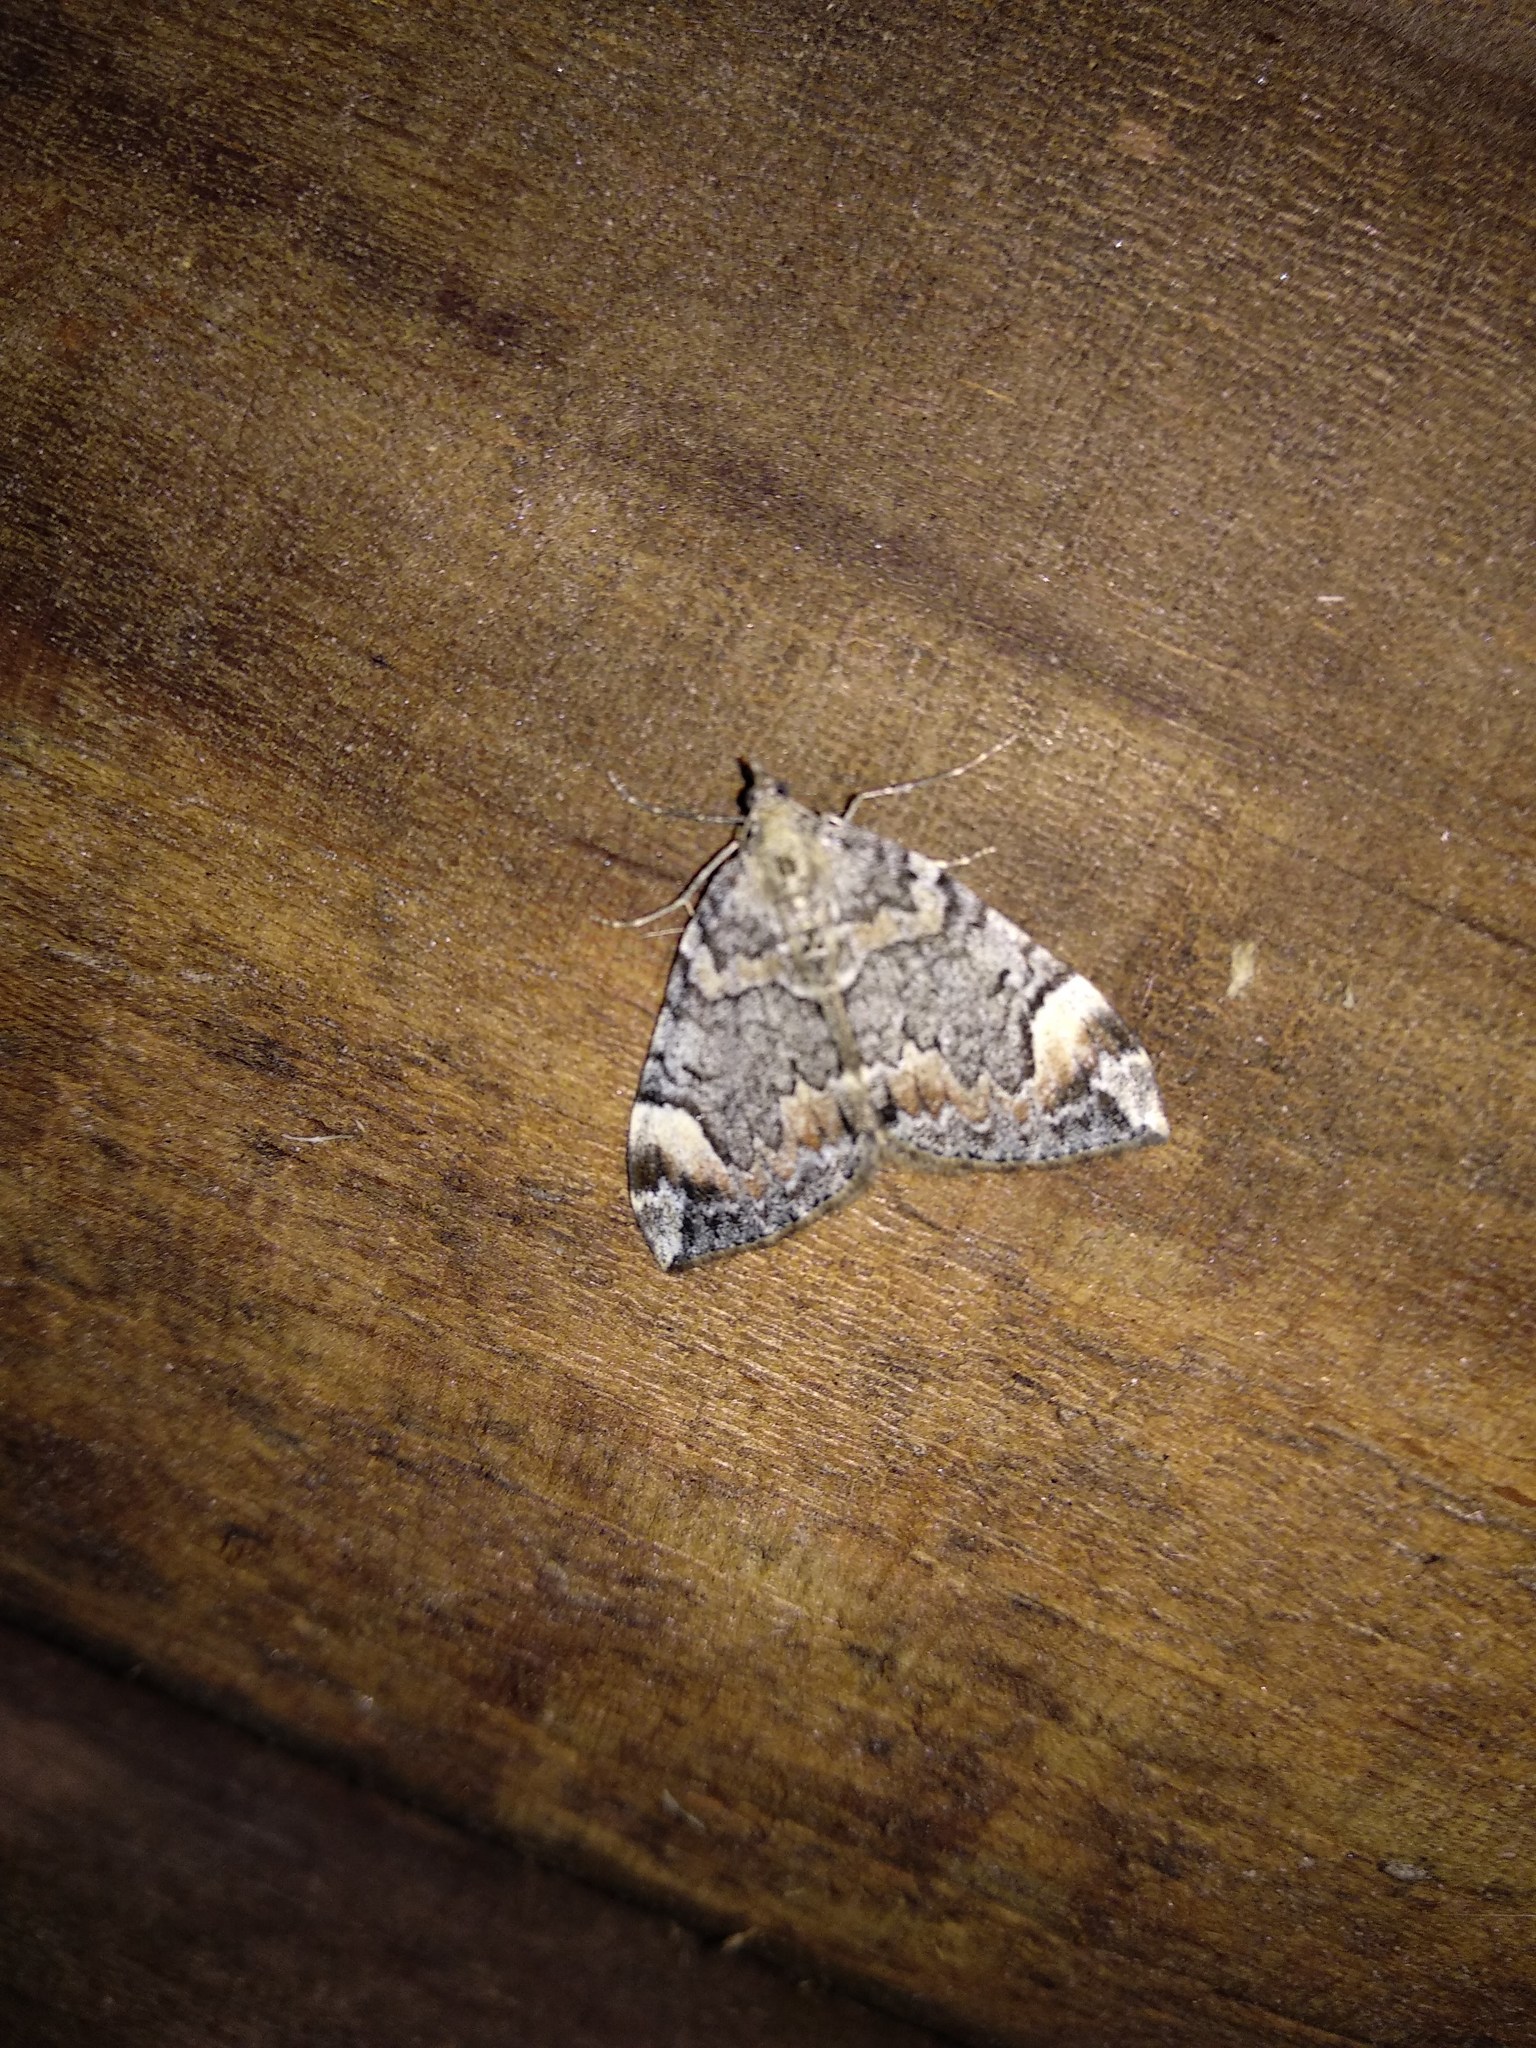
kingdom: Animalia
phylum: Arthropoda
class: Insecta
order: Lepidoptera
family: Geometridae
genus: Dysstroma
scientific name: Dysstroma citrata
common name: Dark marbled carpet
